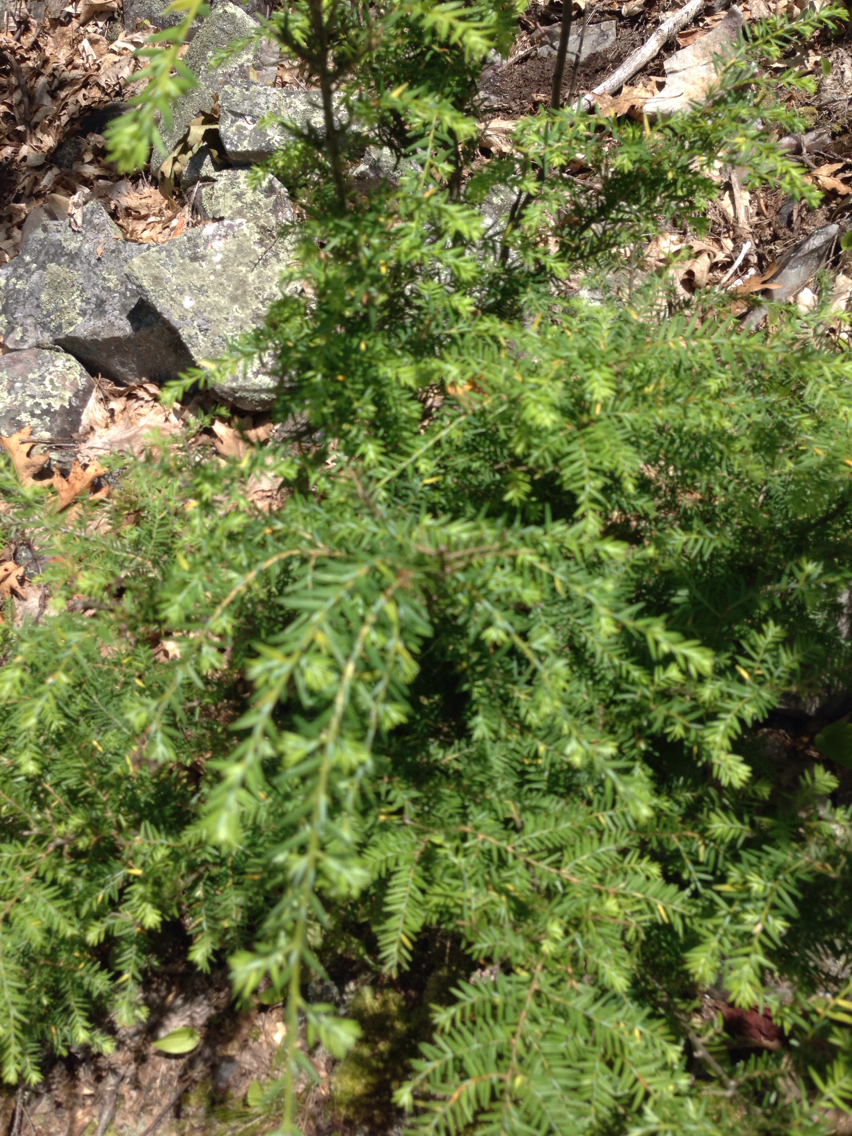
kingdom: Plantae
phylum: Tracheophyta
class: Pinopsida
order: Pinales
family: Pinaceae
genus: Tsuga
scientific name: Tsuga canadensis
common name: Eastern hemlock
